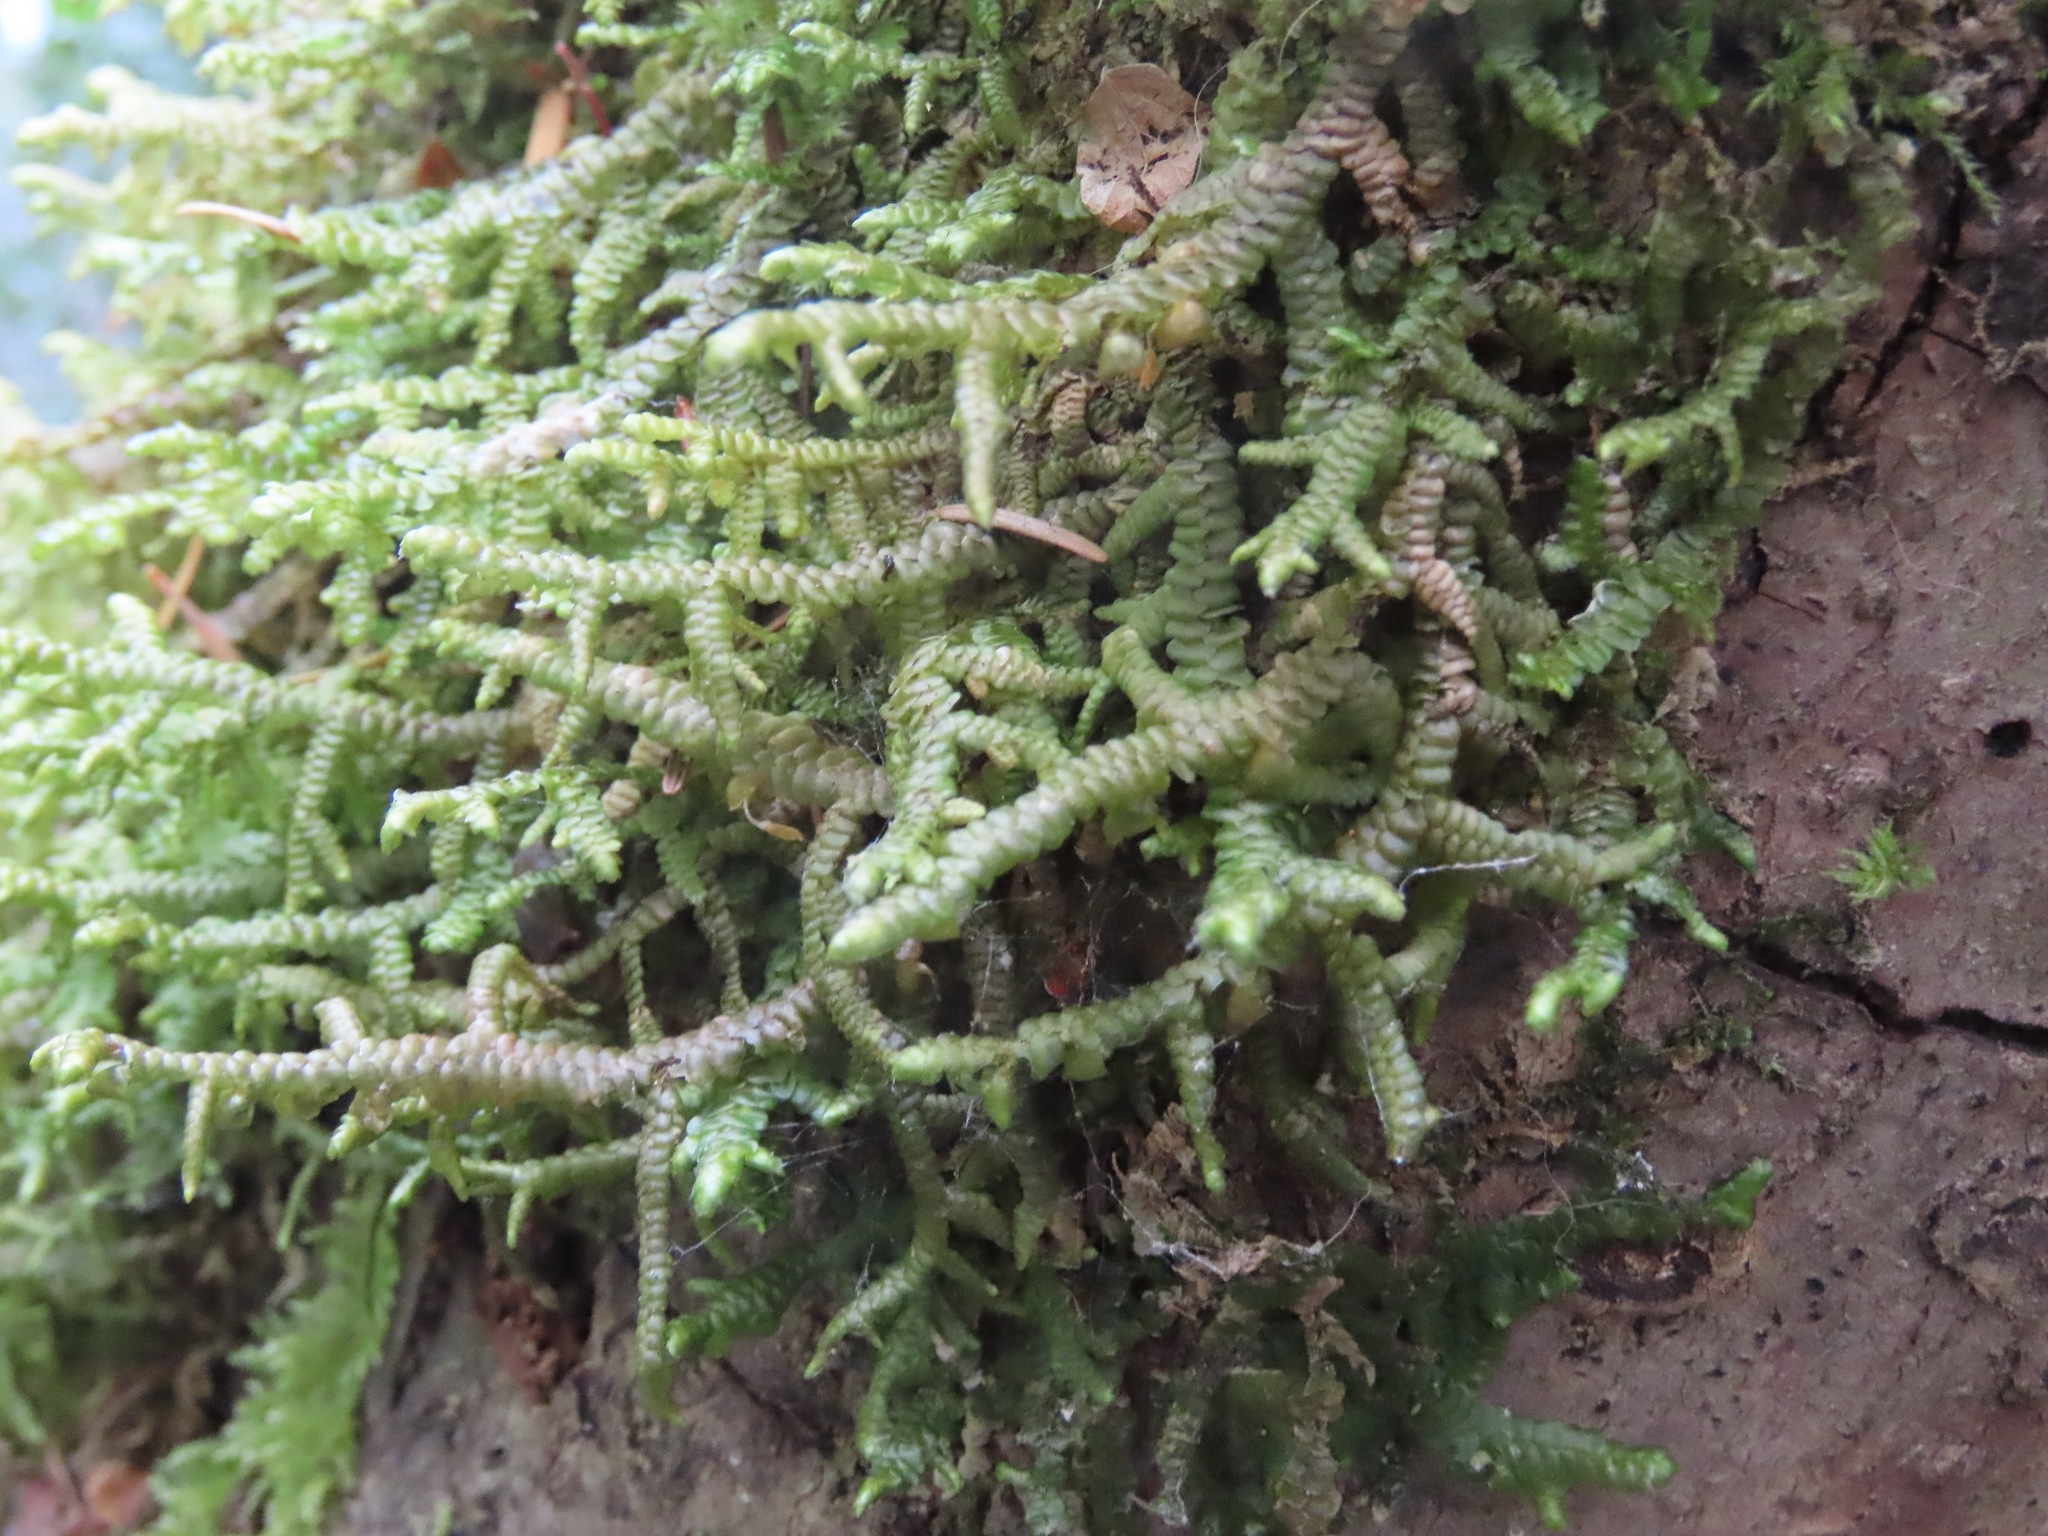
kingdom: Plantae
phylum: Marchantiophyta
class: Jungermanniopsida
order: Porellales
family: Porellaceae
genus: Porella
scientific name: Porella navicularis
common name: Tree ruffle liverwort
